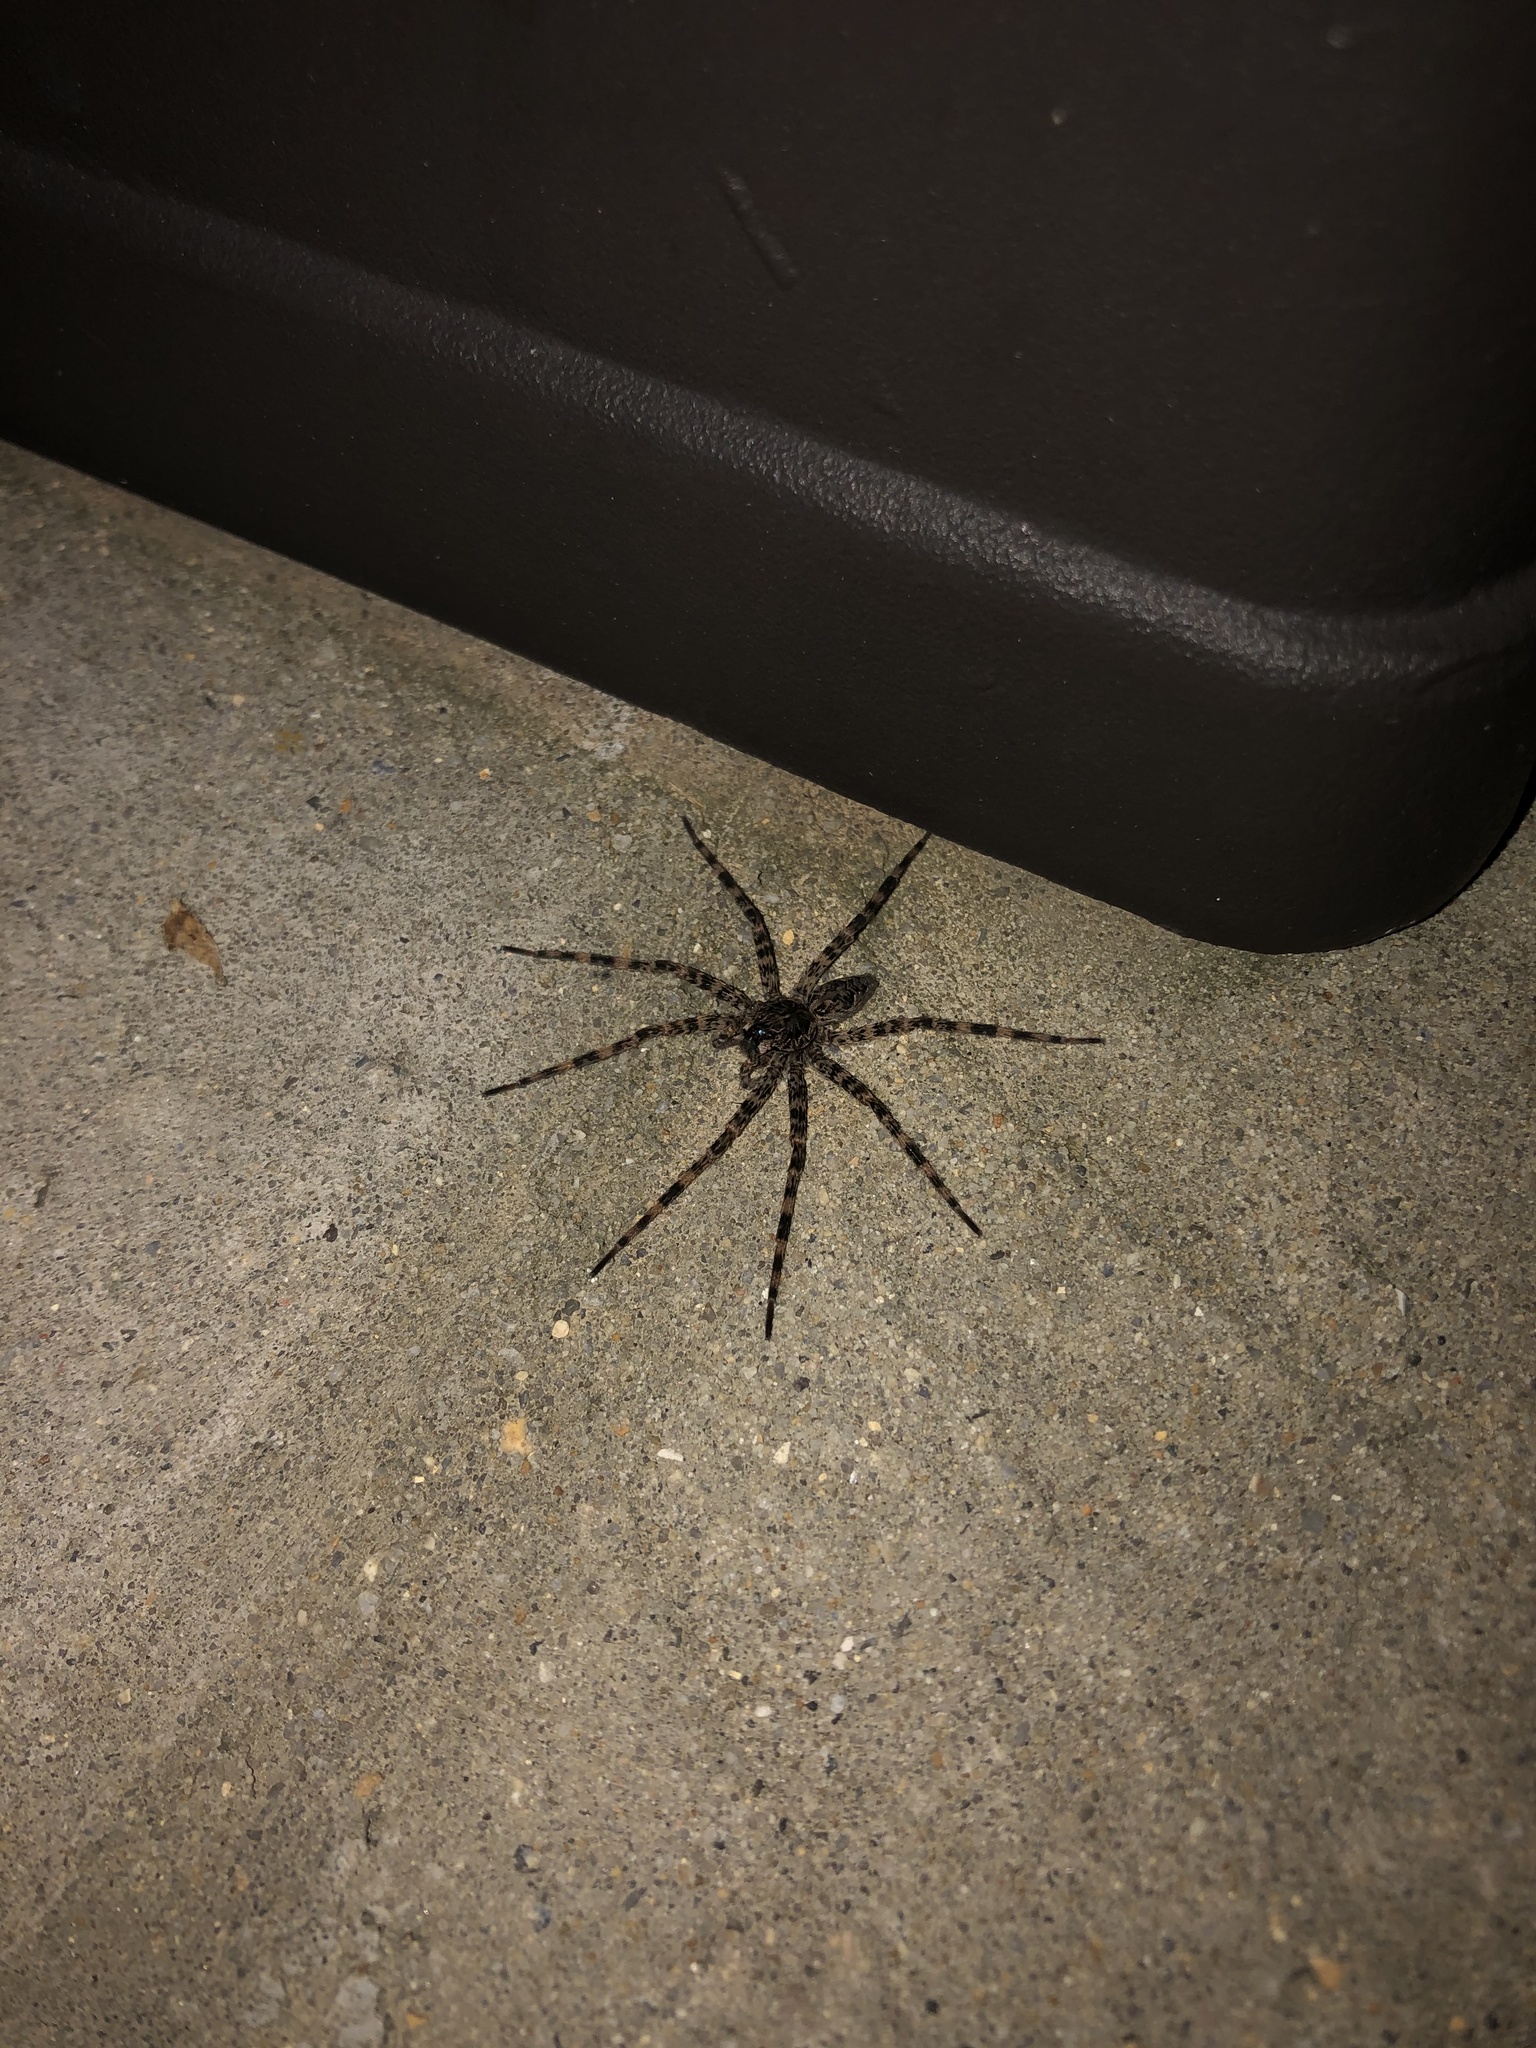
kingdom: Animalia
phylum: Arthropoda
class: Arachnida
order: Araneae
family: Pisauridae
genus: Dolomedes
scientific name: Dolomedes tenebrosus
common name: Dark fishing spider
